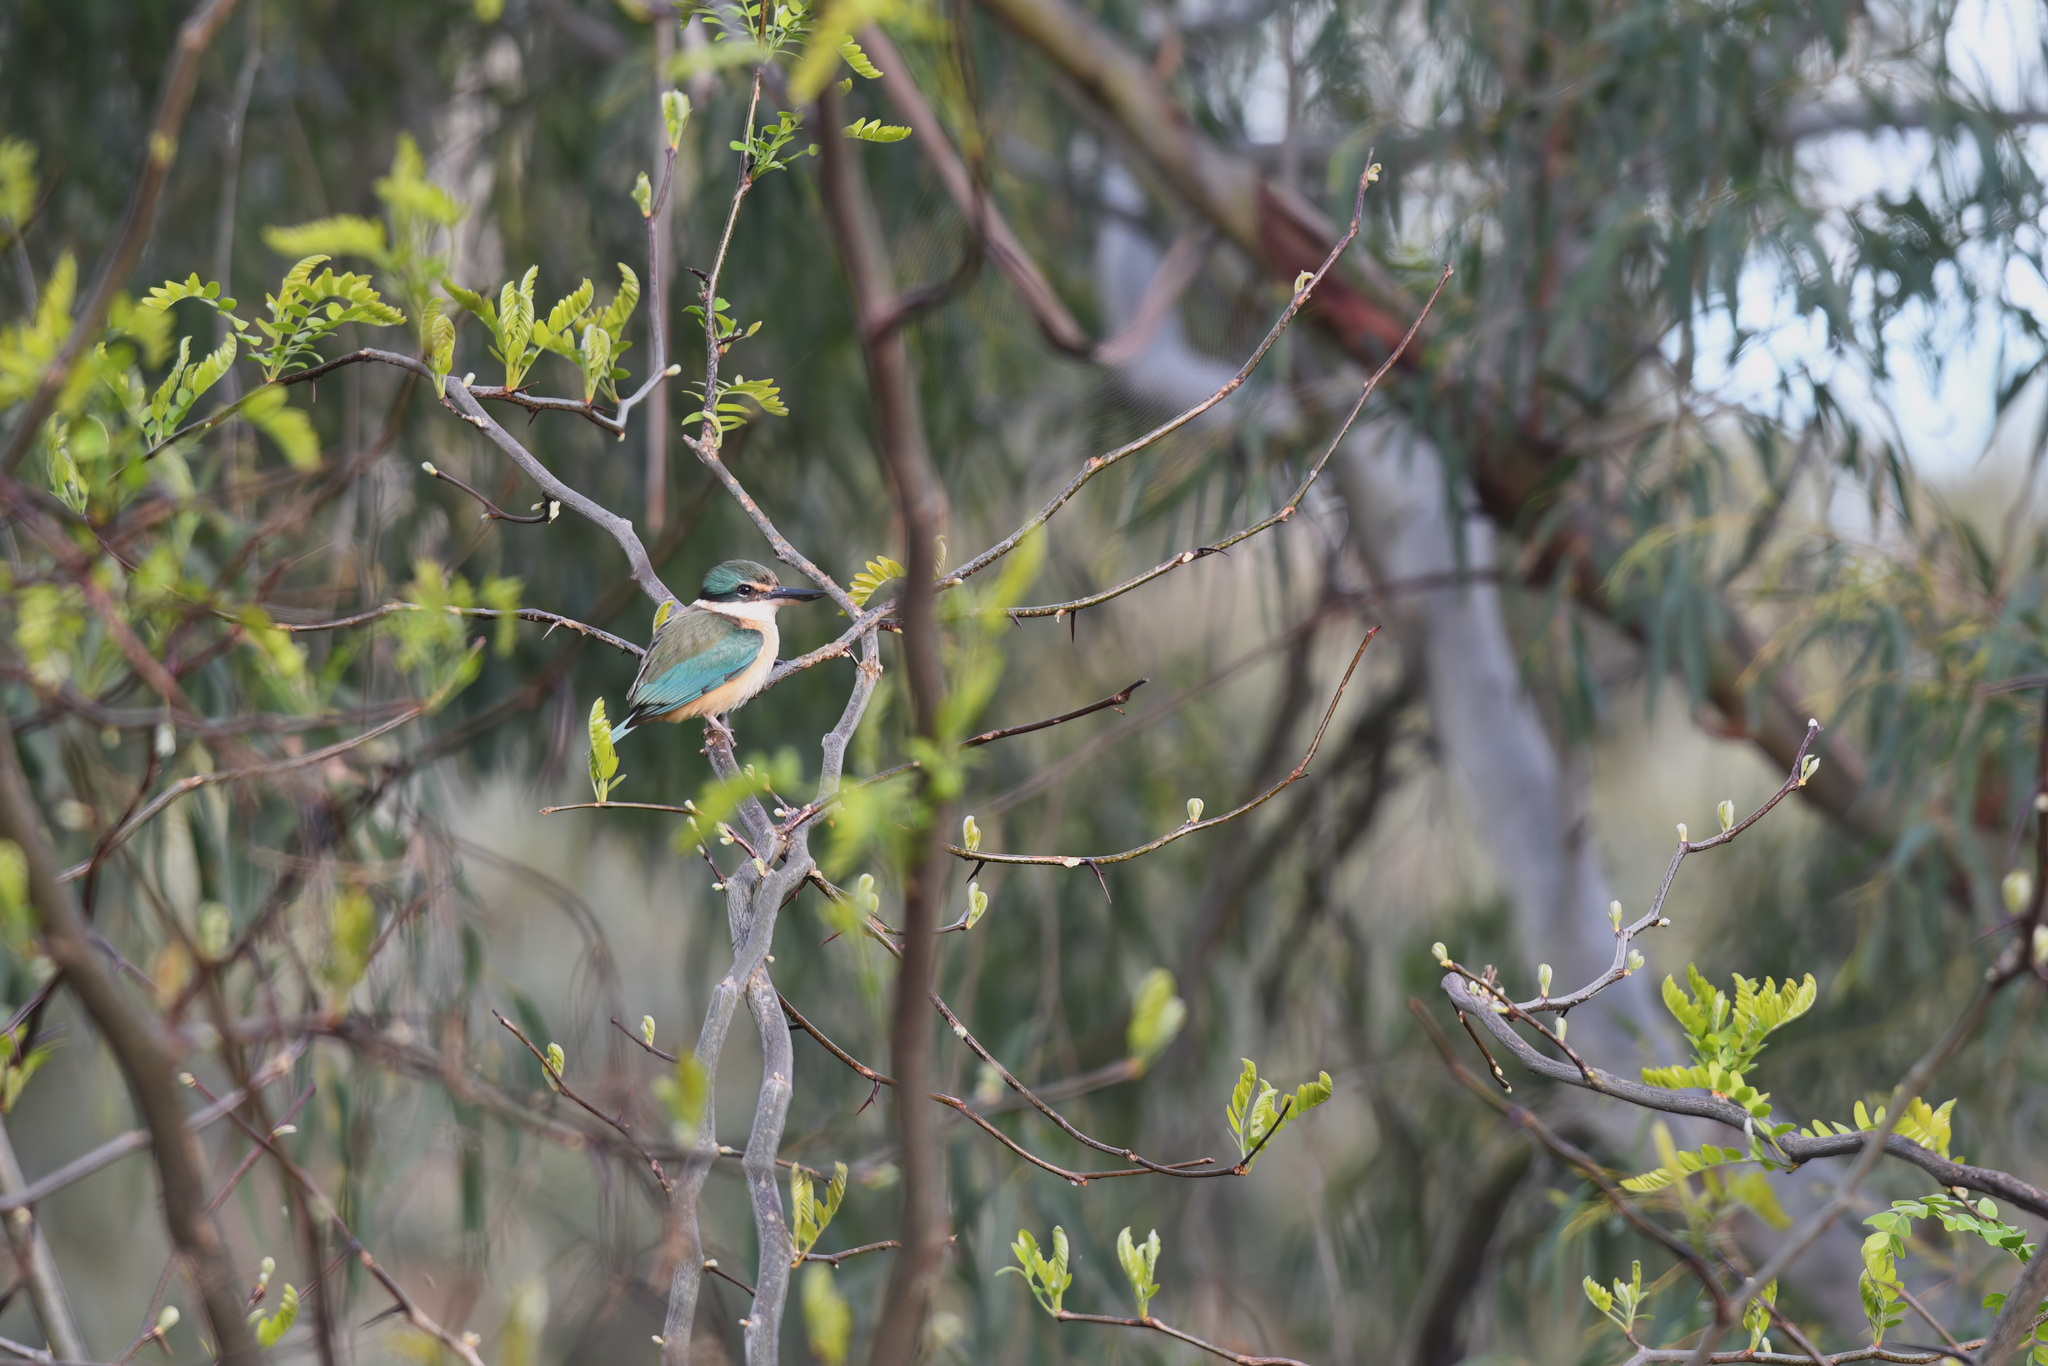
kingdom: Animalia
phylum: Chordata
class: Aves
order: Coraciiformes
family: Alcedinidae
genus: Todiramphus
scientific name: Todiramphus sanctus
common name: Sacred kingfisher
